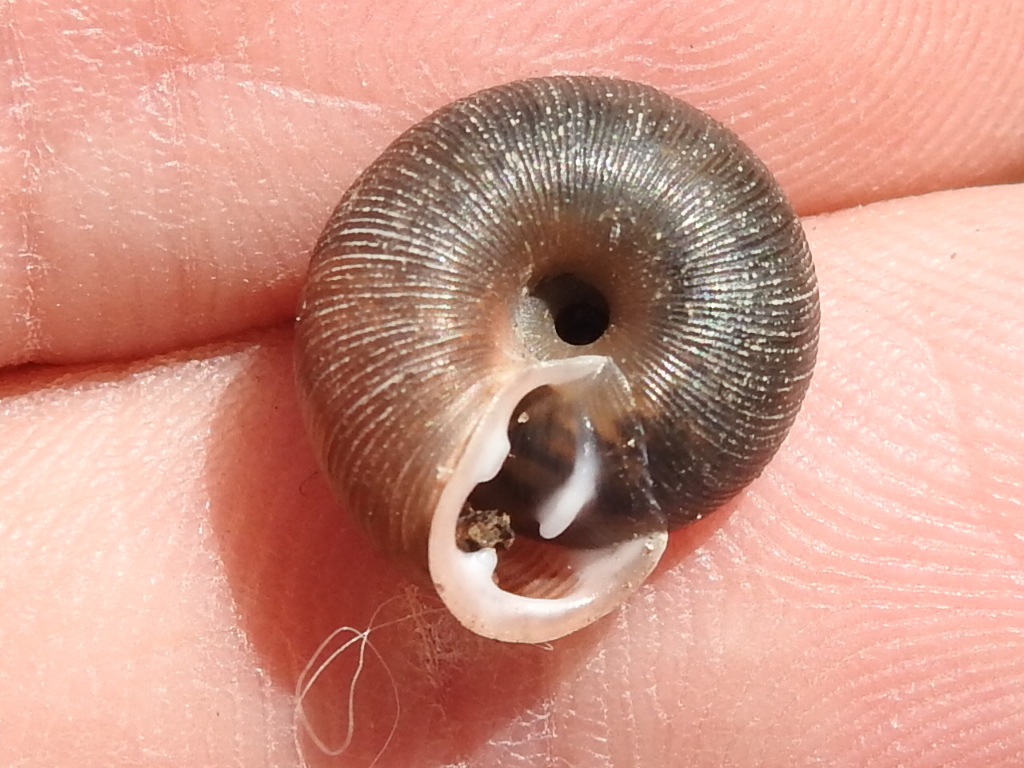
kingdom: Animalia
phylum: Mollusca
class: Gastropoda
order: Stylommatophora
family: Polygyridae
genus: Triodopsis
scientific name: Triodopsis hopetonensis
